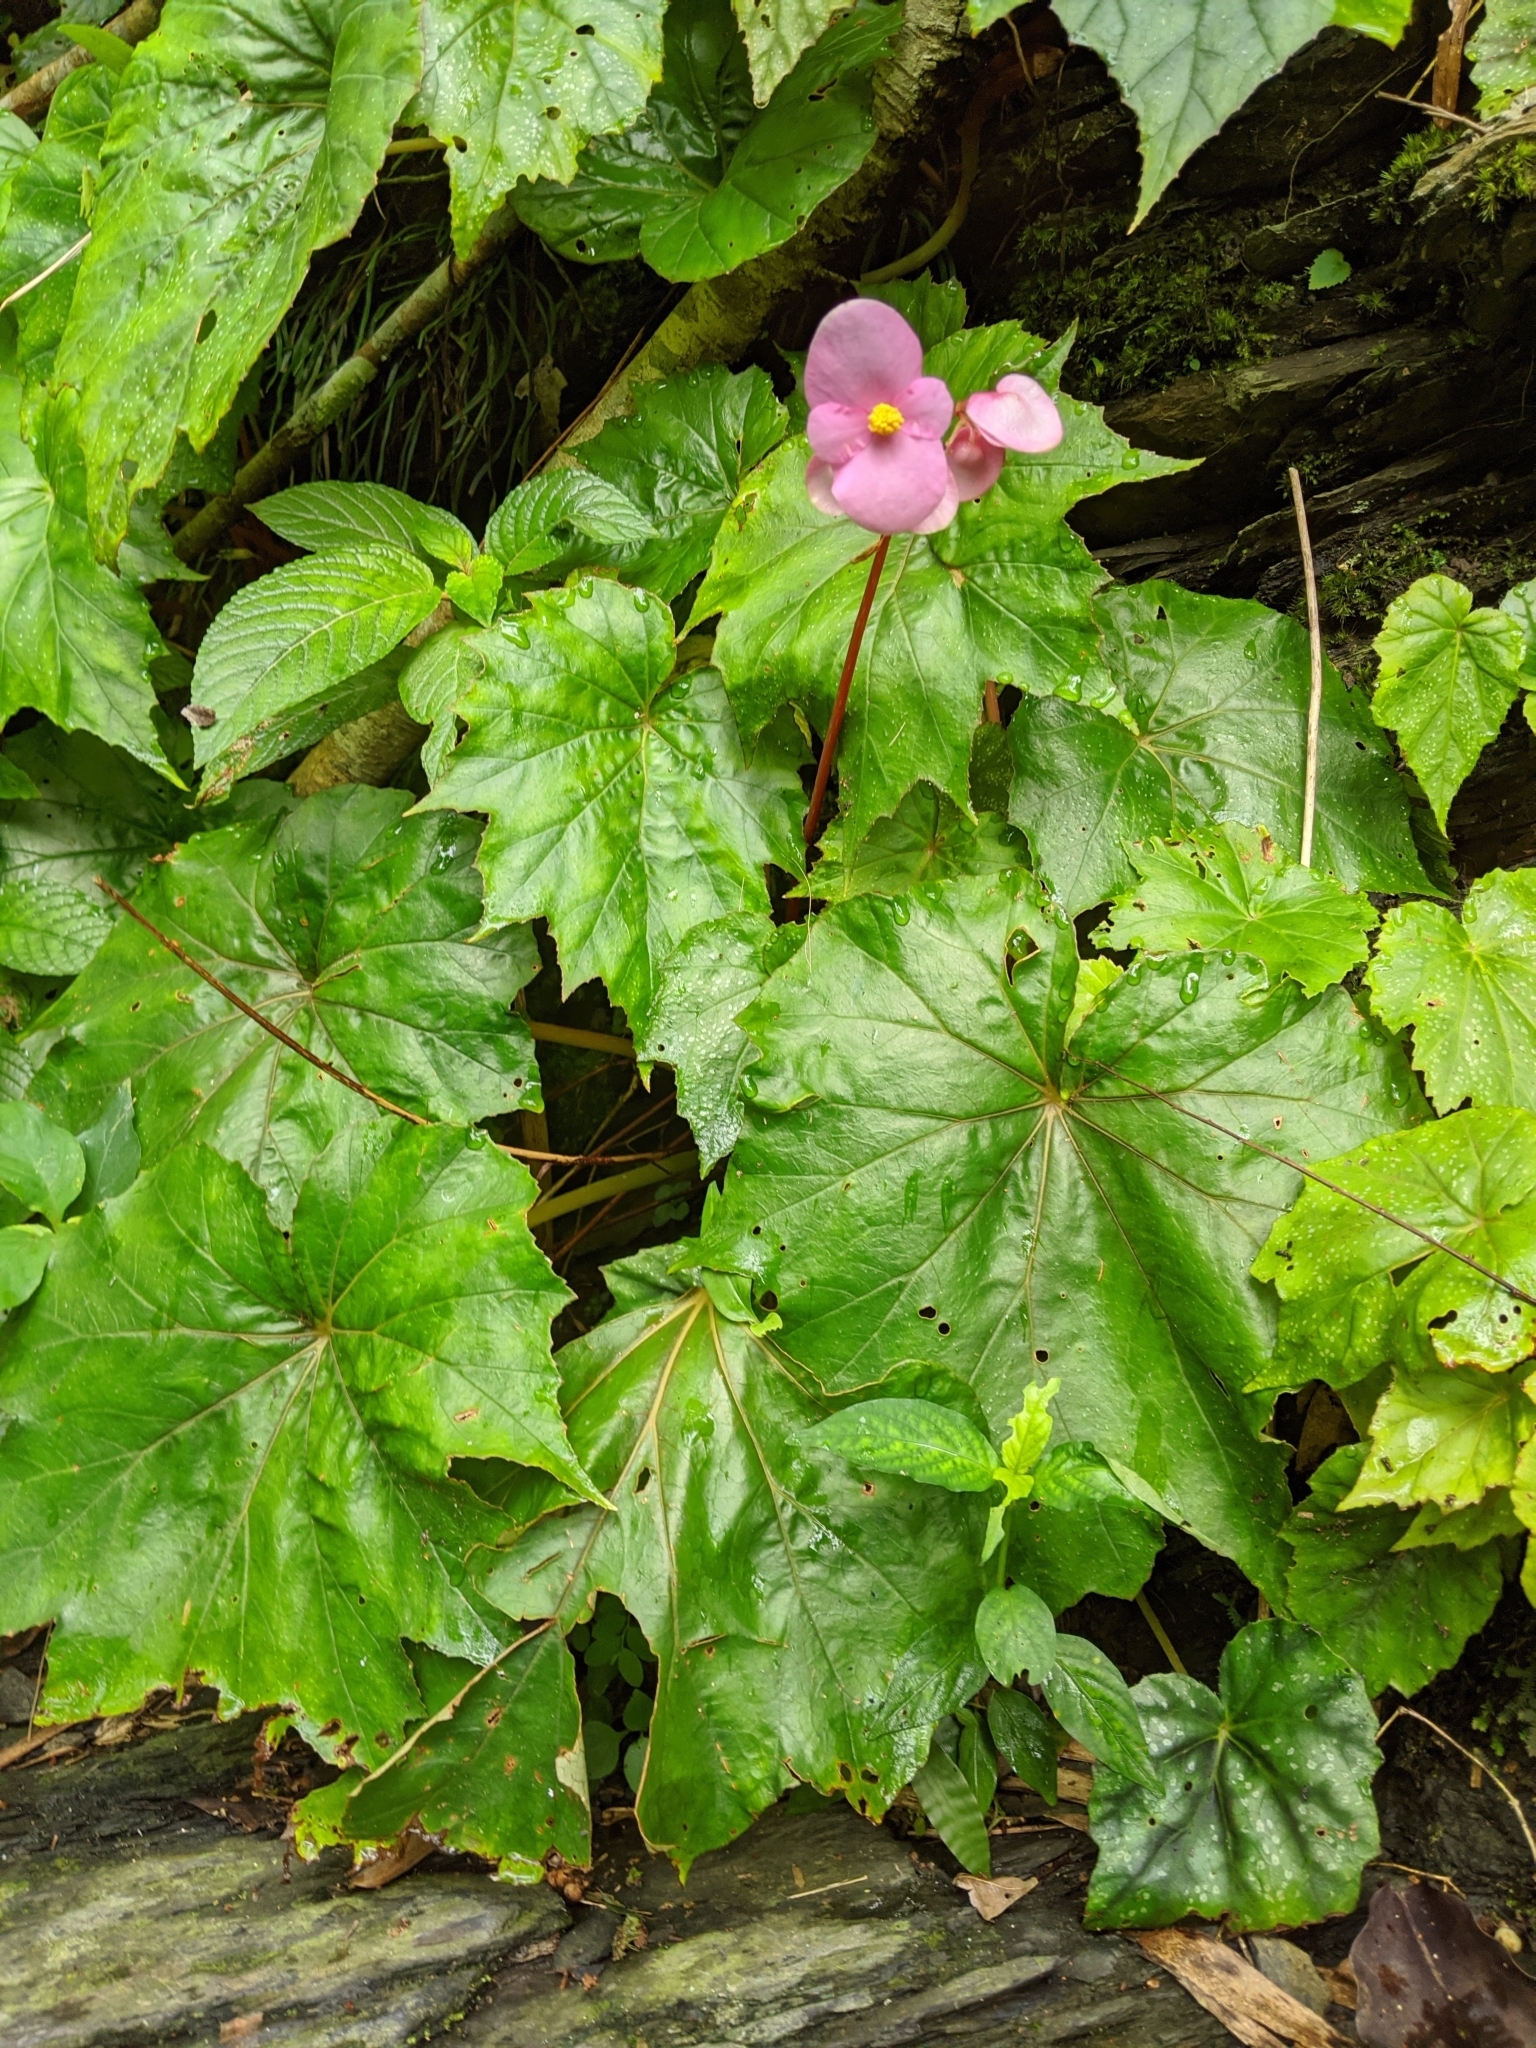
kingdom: Plantae
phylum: Tracheophyta
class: Magnoliopsida
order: Cucurbitales
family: Begoniaceae
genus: Begonia
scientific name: Begonia austrotaiwanensis
